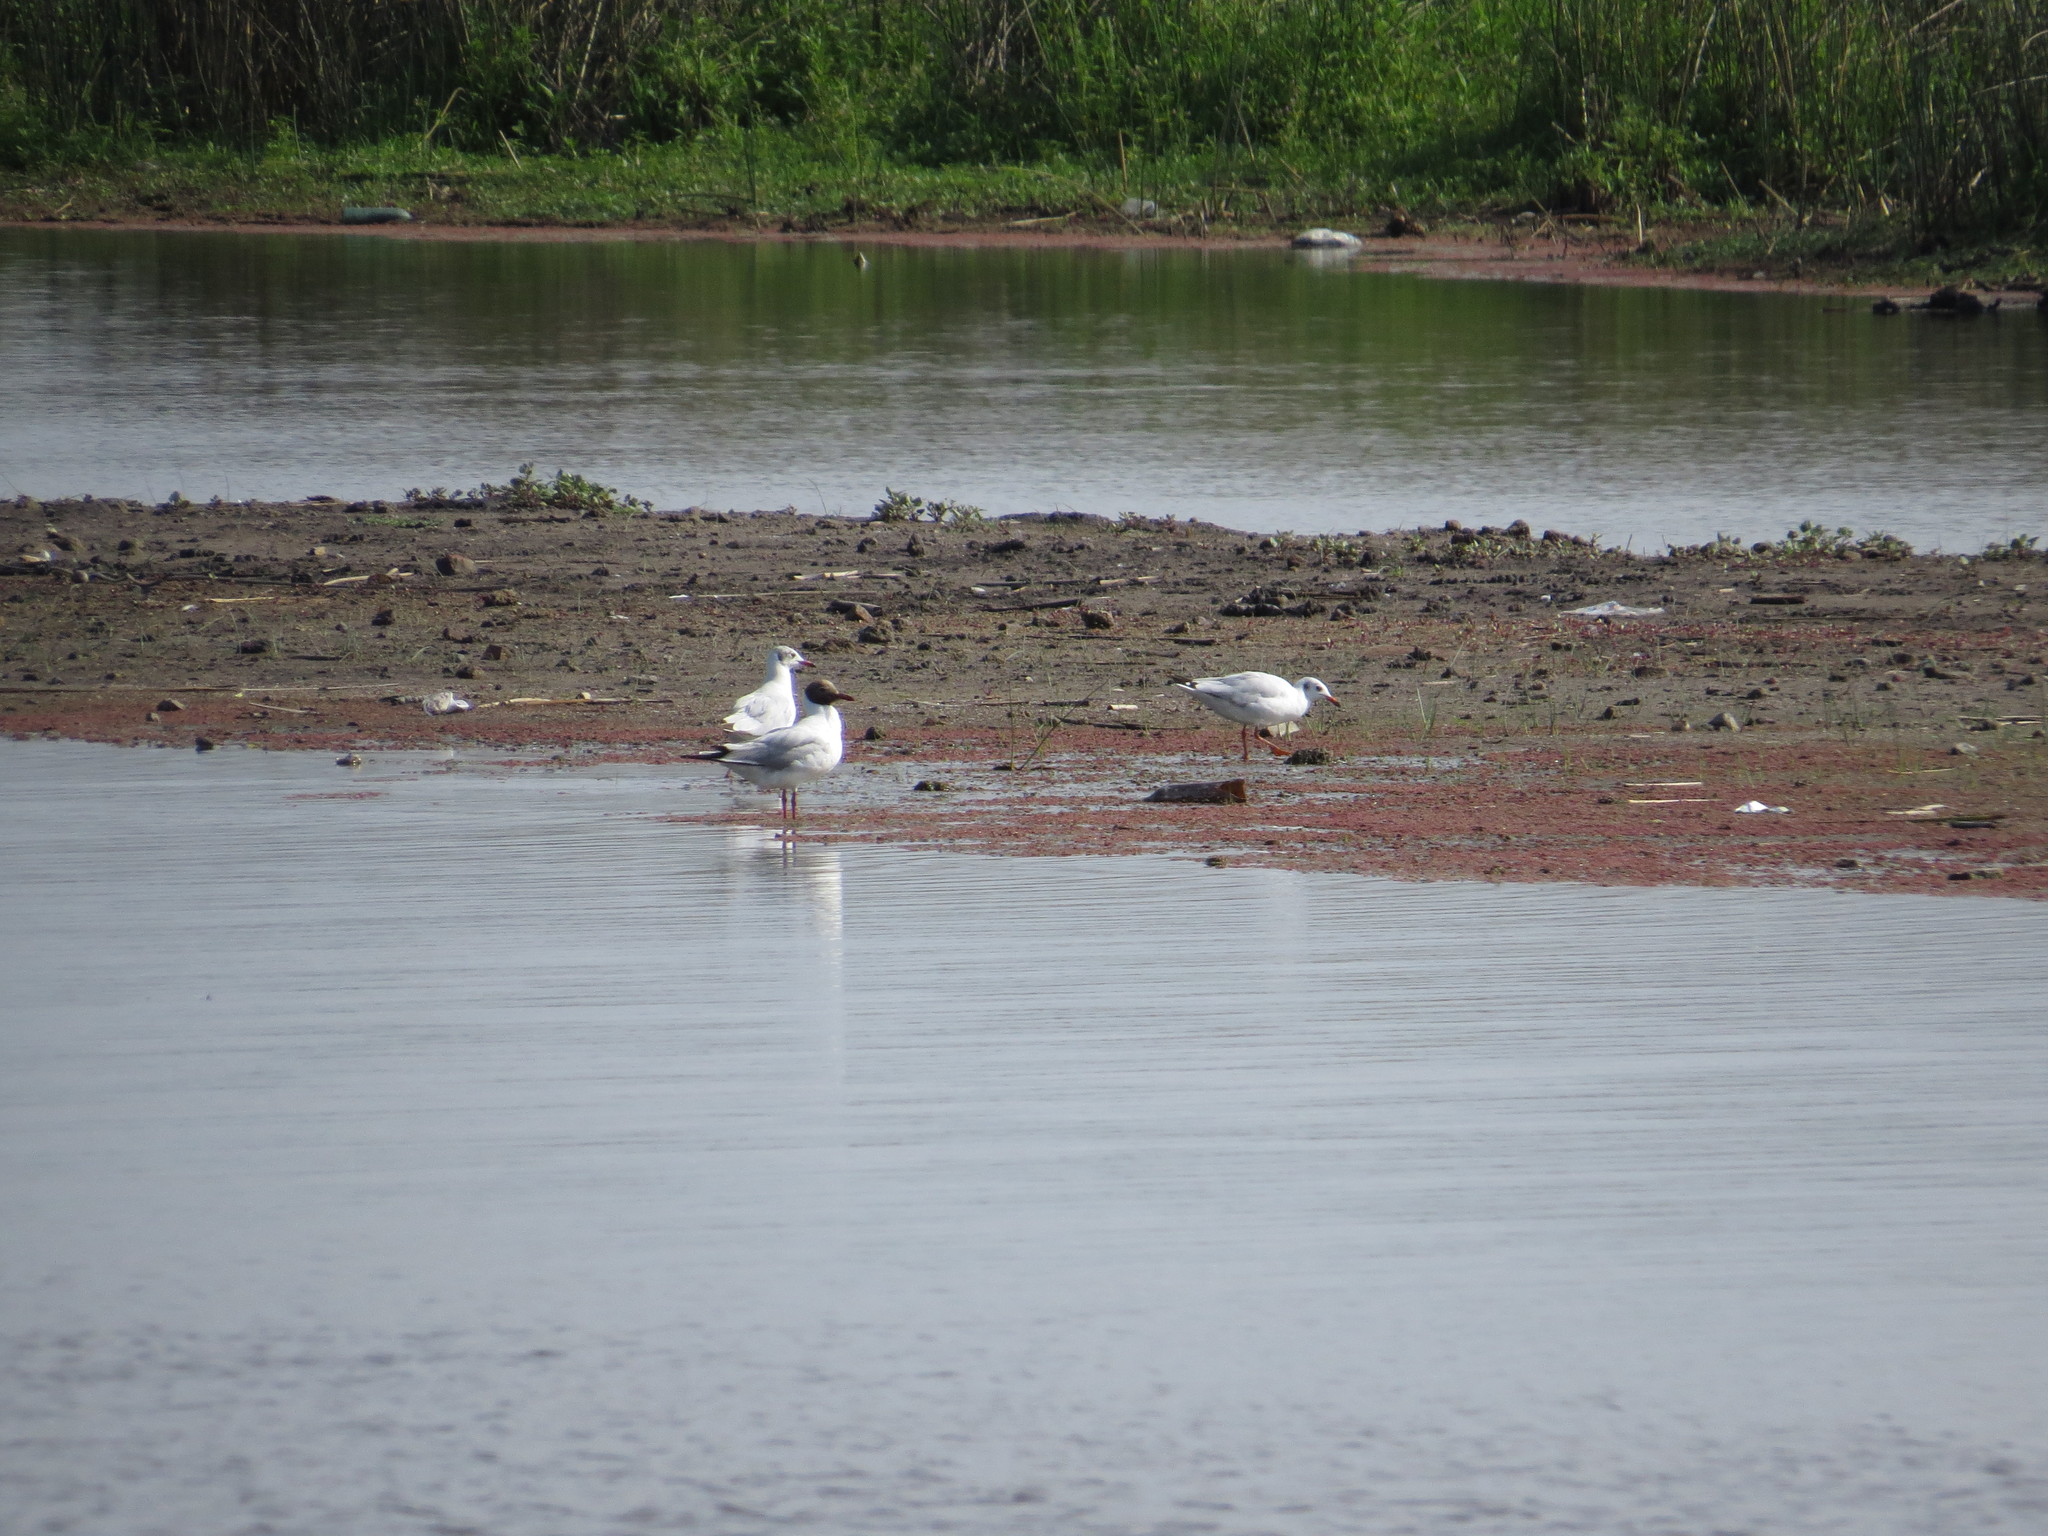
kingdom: Animalia
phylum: Chordata
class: Aves
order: Charadriiformes
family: Laridae
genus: Chroicocephalus
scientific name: Chroicocephalus maculipennis
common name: Brown-hooded gull
